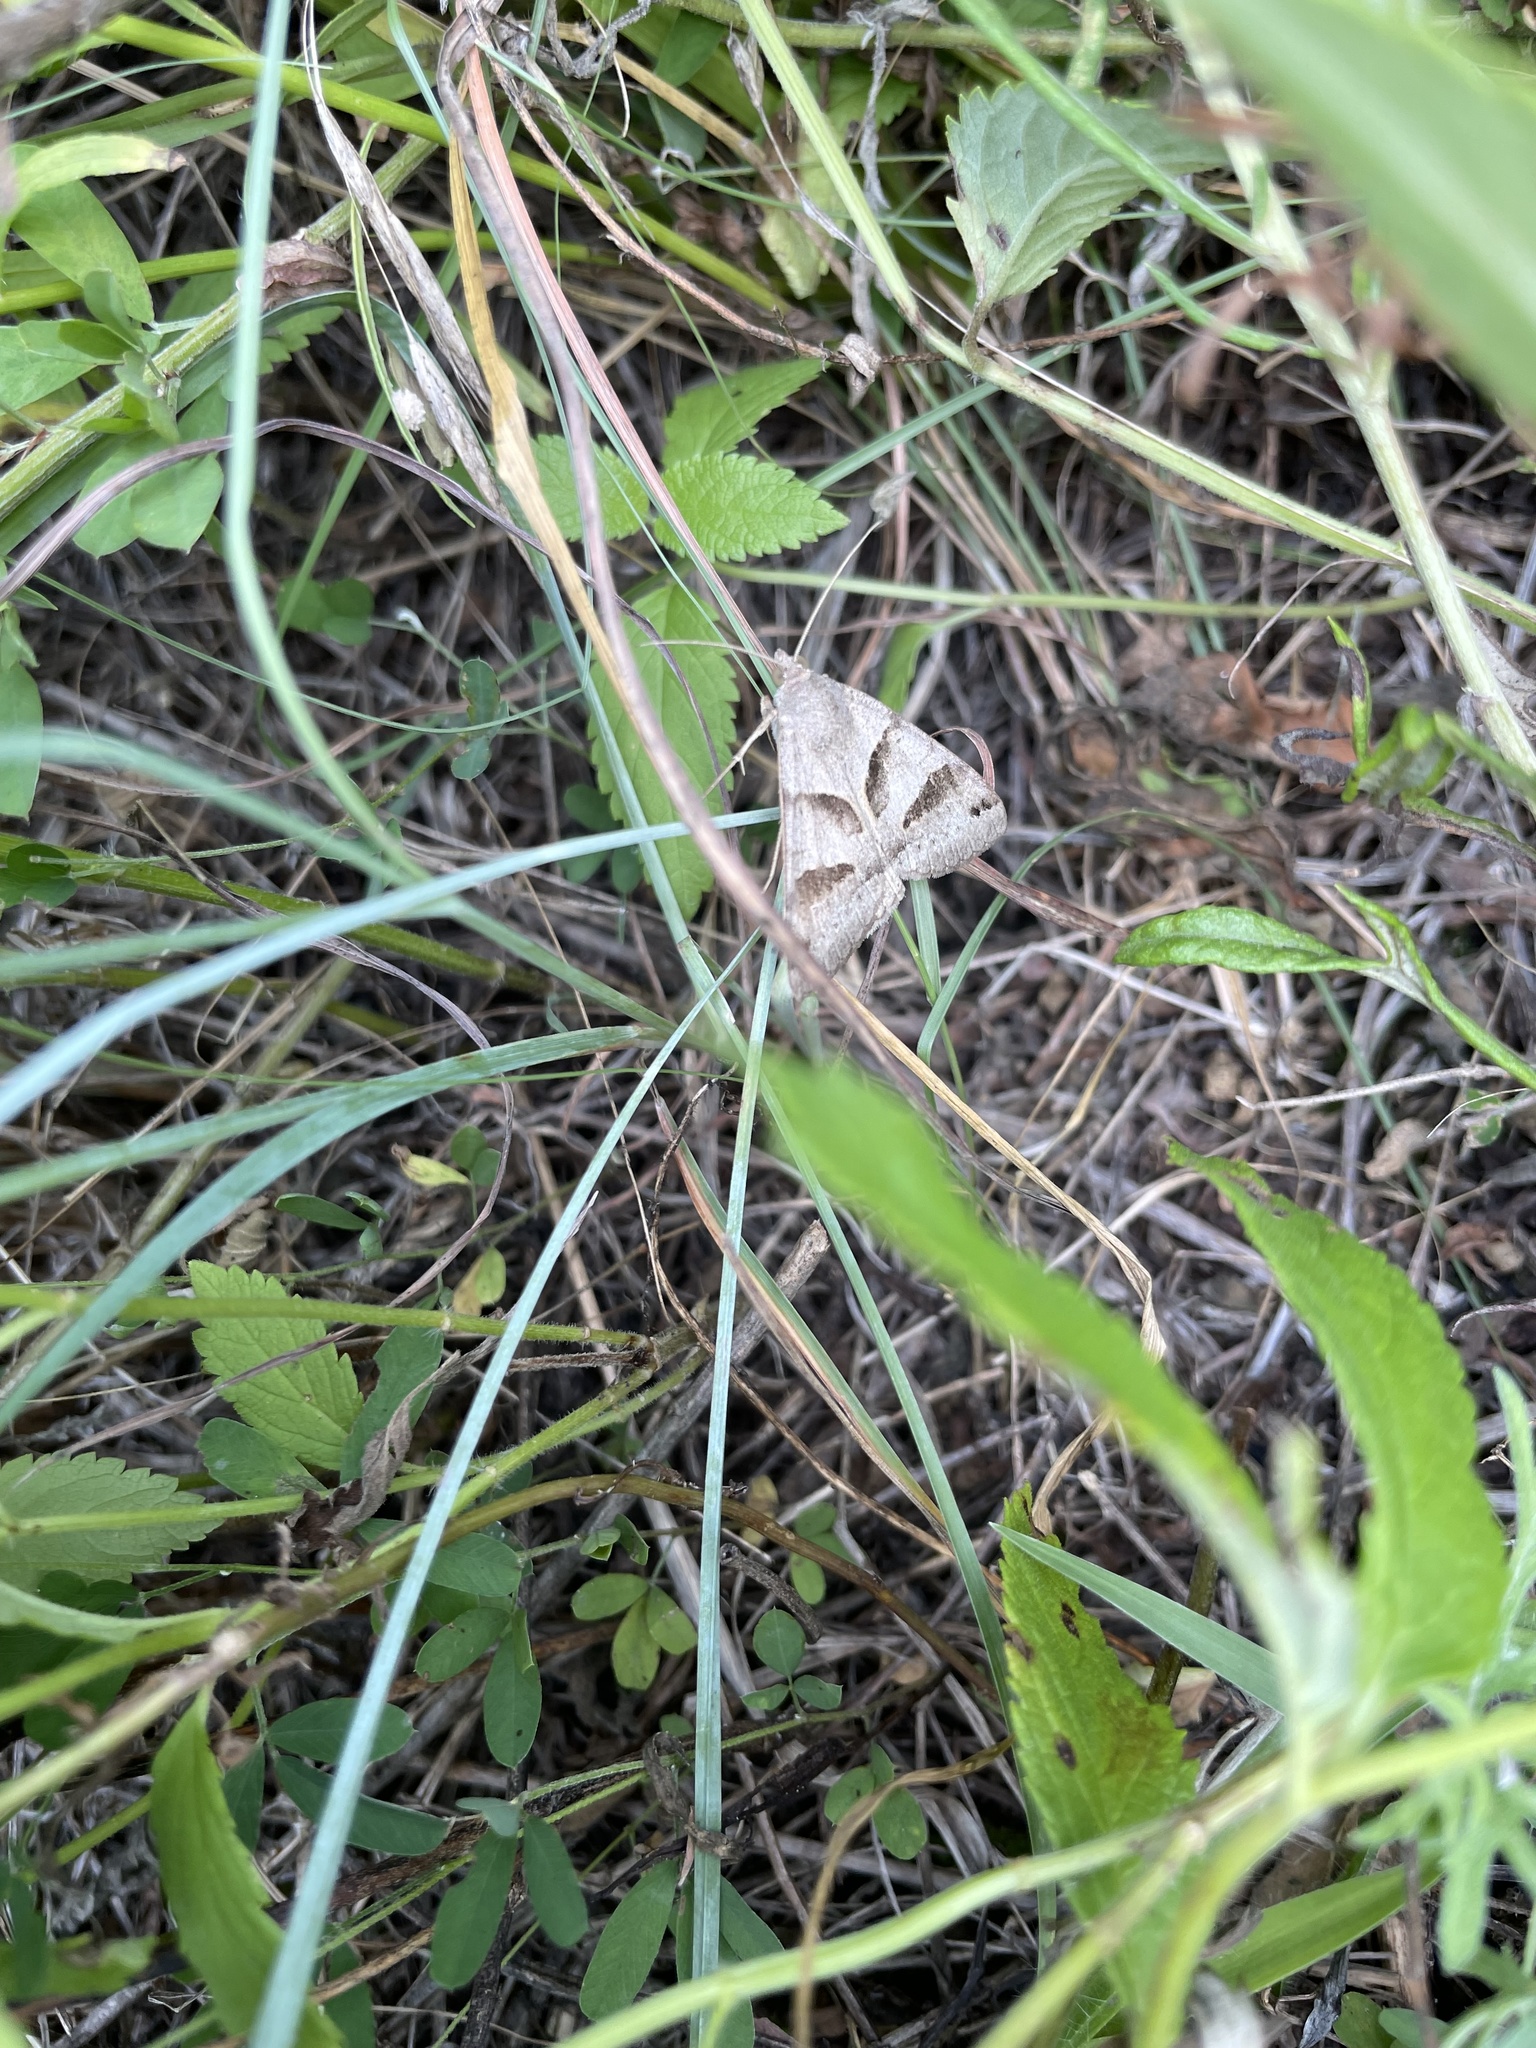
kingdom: Animalia
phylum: Arthropoda
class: Insecta
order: Lepidoptera
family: Erebidae
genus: Caenurgina
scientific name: Caenurgina erechtea
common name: Forage looper moth
